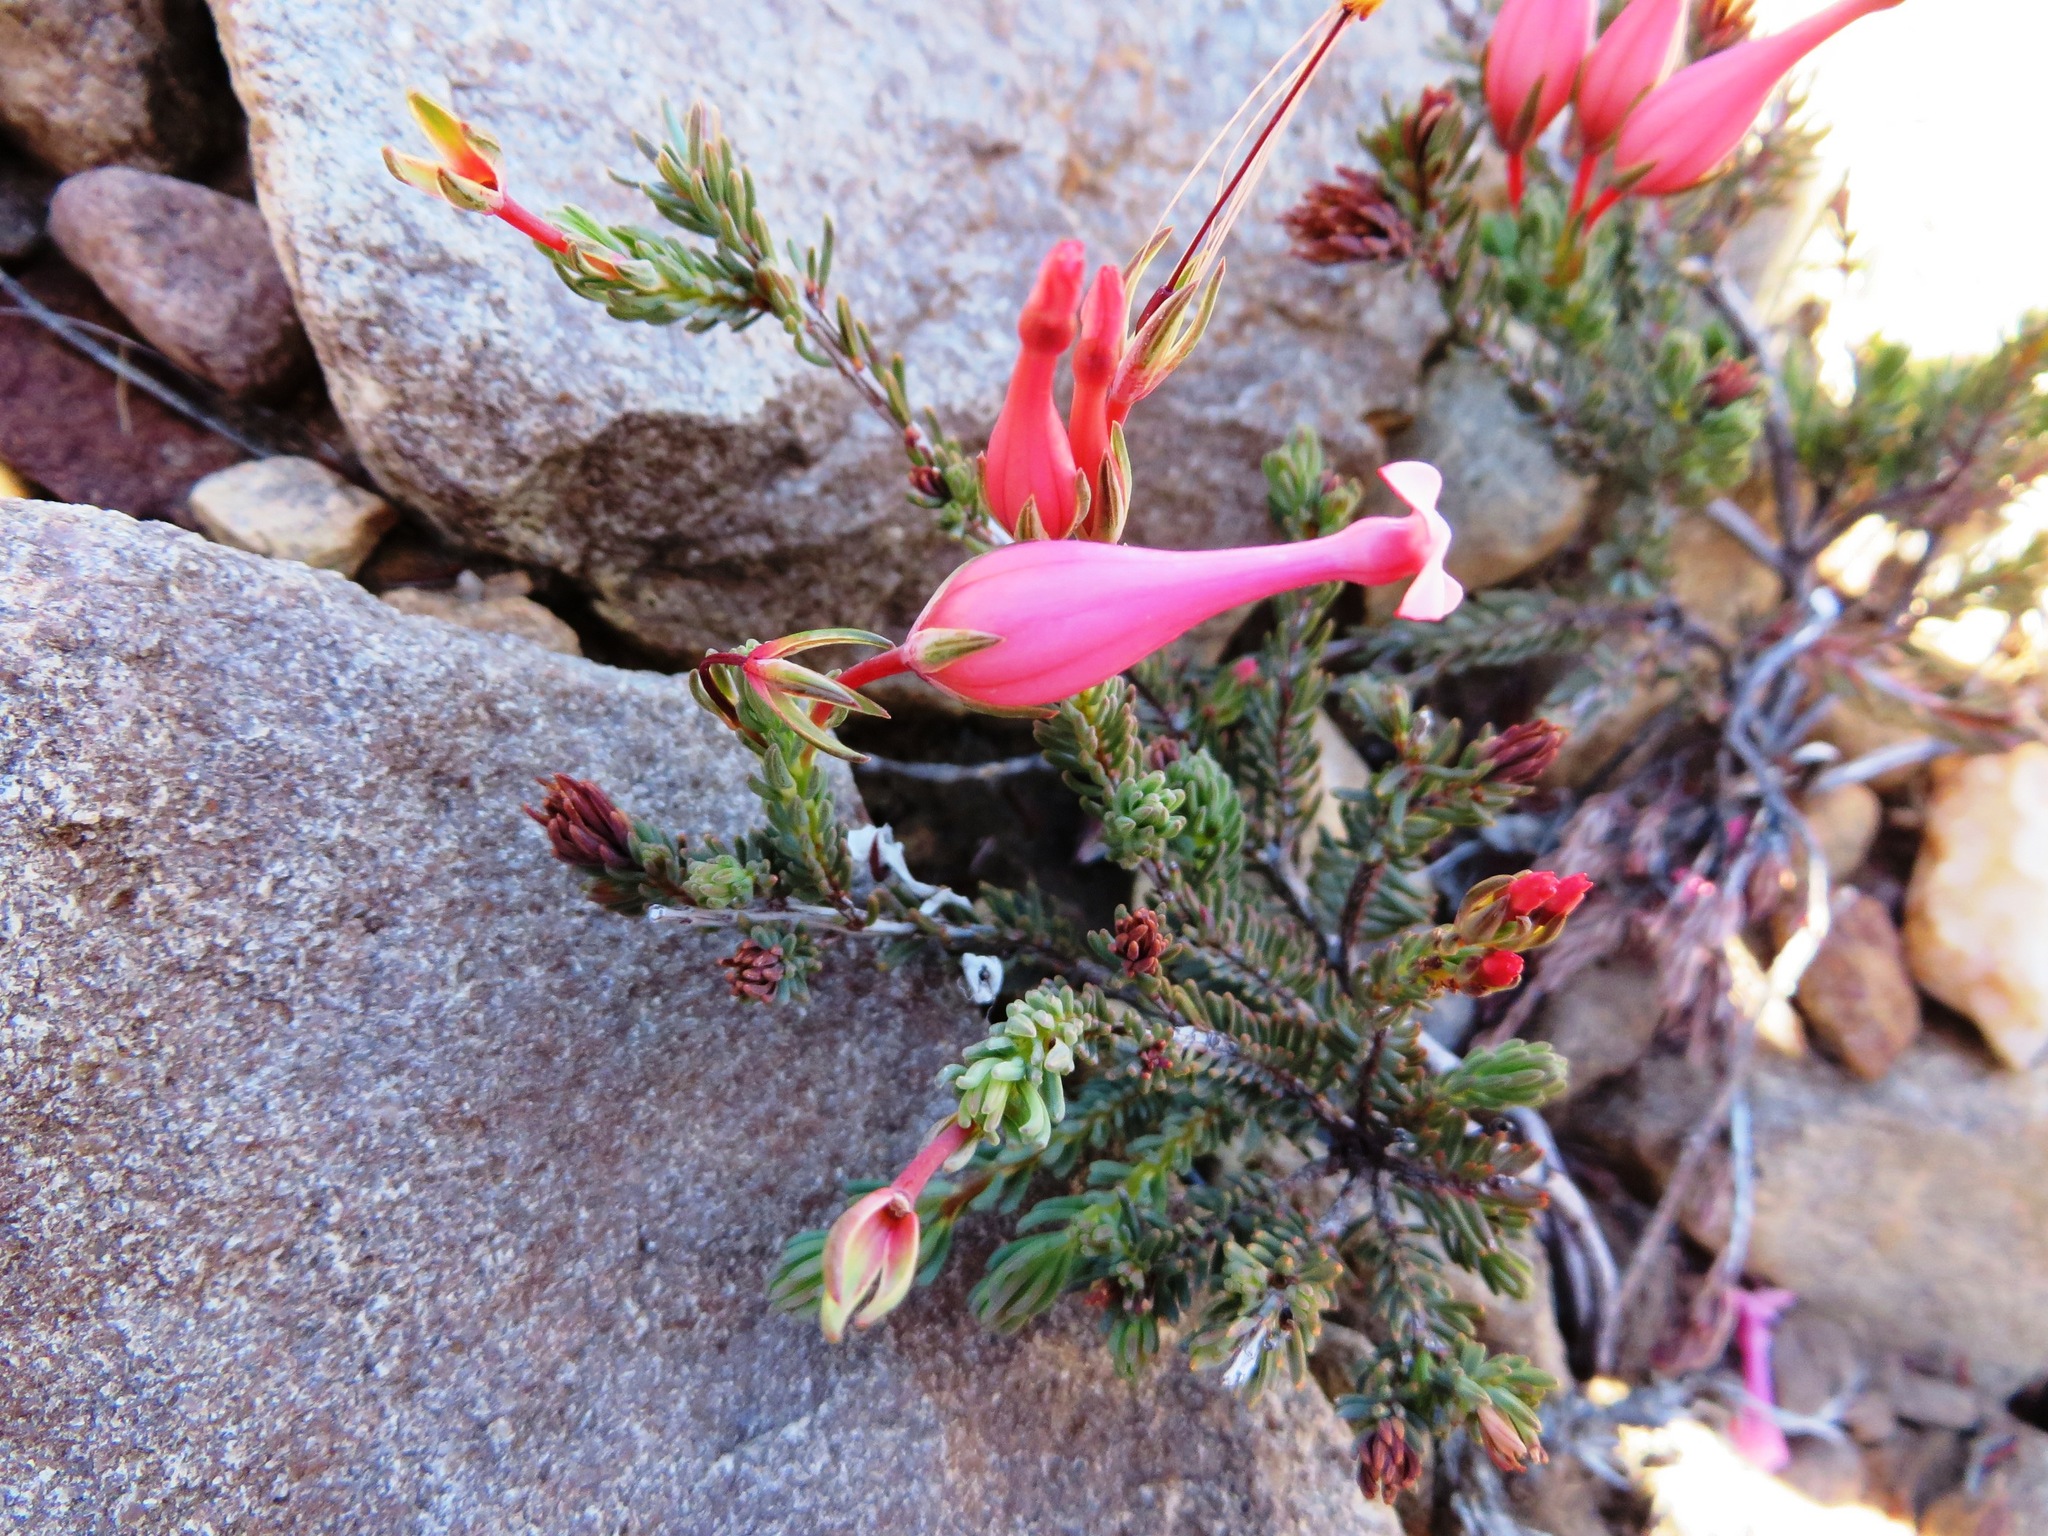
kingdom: Plantae
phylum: Tracheophyta
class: Magnoliopsida
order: Ericales
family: Ericaceae
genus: Erica
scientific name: Erica junonia
